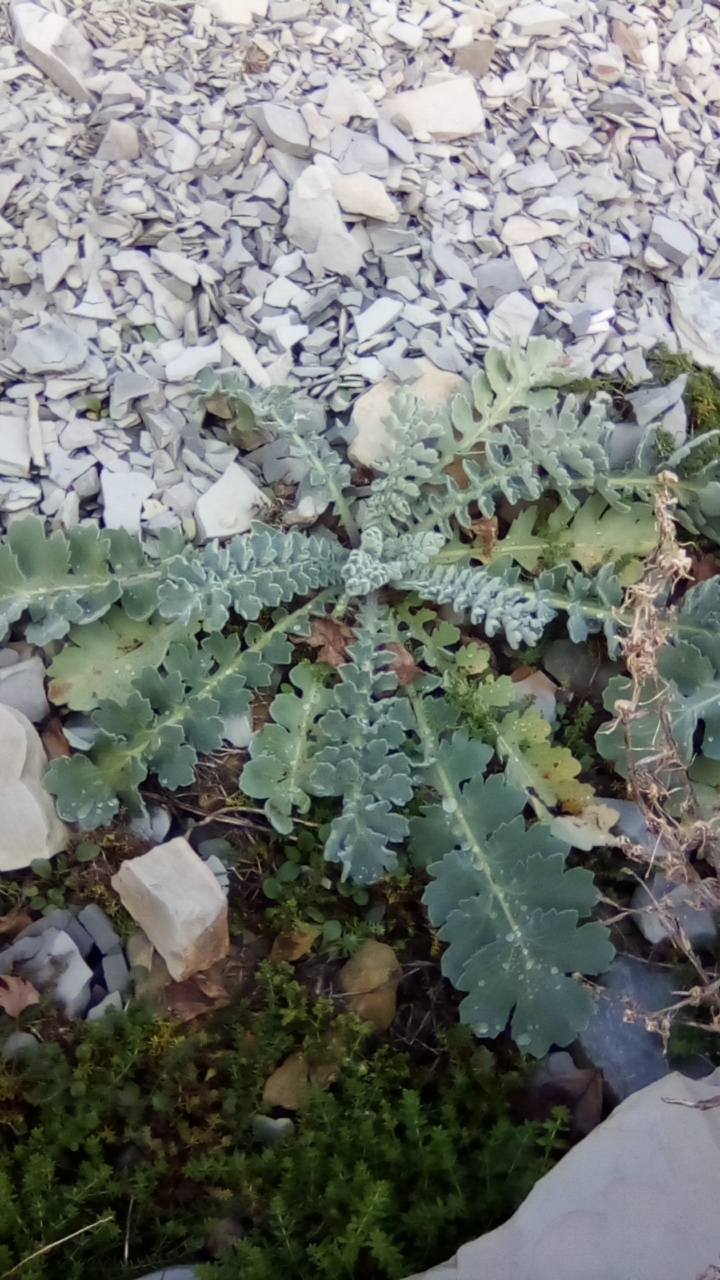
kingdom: Plantae
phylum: Tracheophyta
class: Magnoliopsida
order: Ranunculales
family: Papaveraceae
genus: Glaucium
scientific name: Glaucium flavum
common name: Yellow horned-poppy
